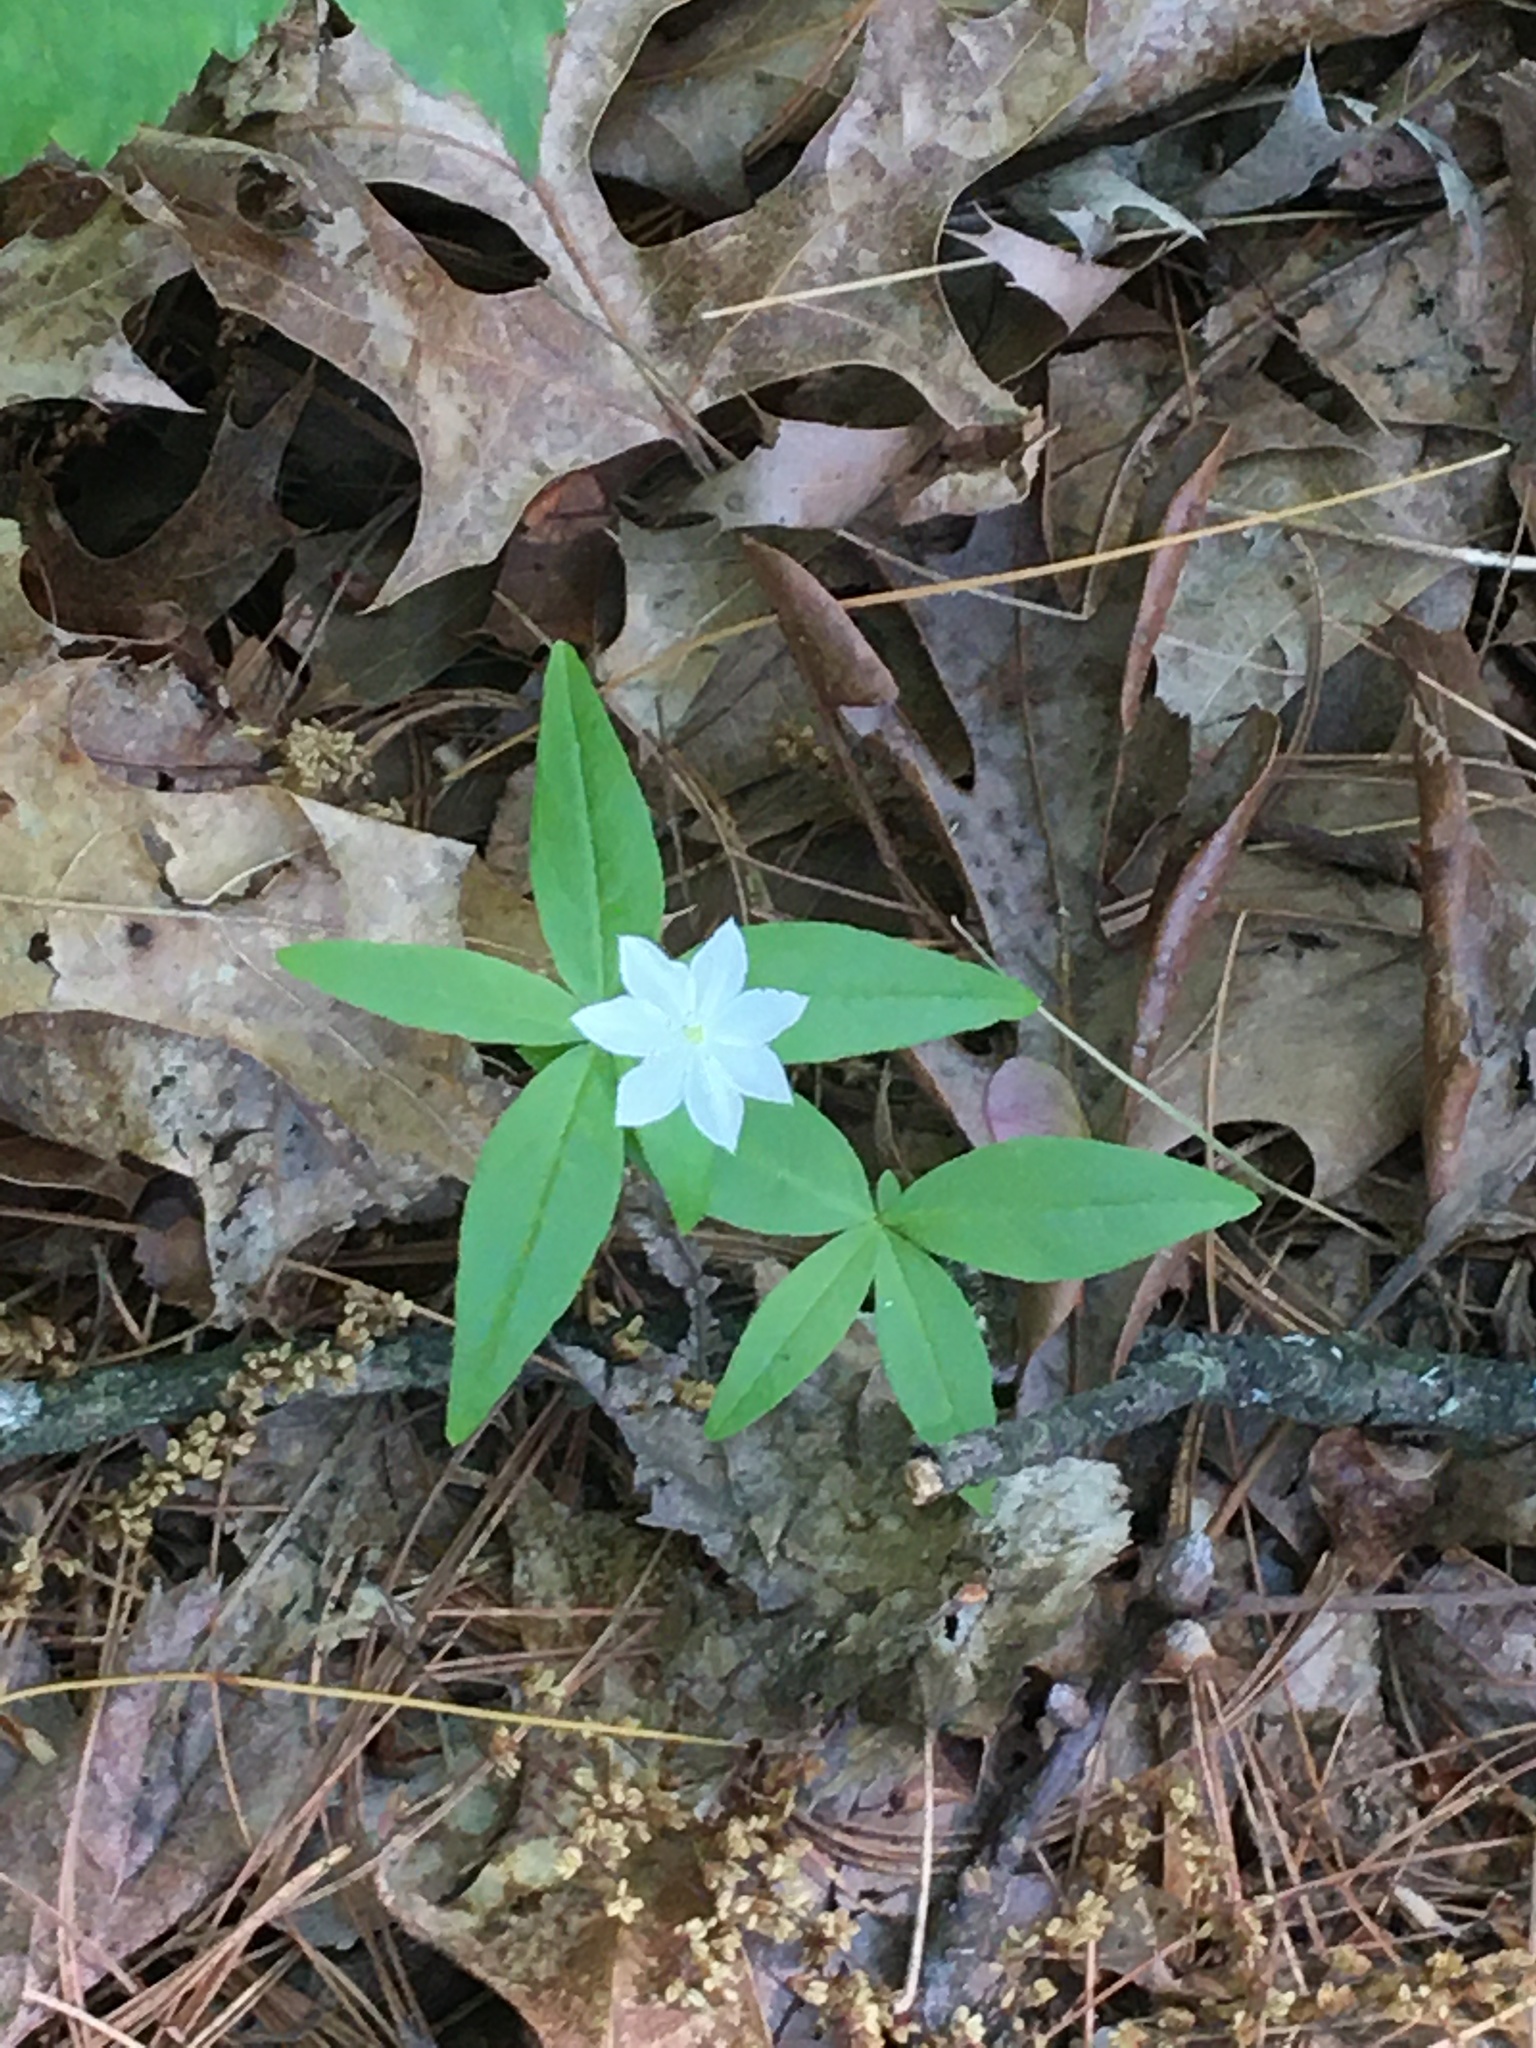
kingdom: Plantae
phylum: Tracheophyta
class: Magnoliopsida
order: Ericales
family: Primulaceae
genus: Lysimachia
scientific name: Lysimachia borealis
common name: American starflower
